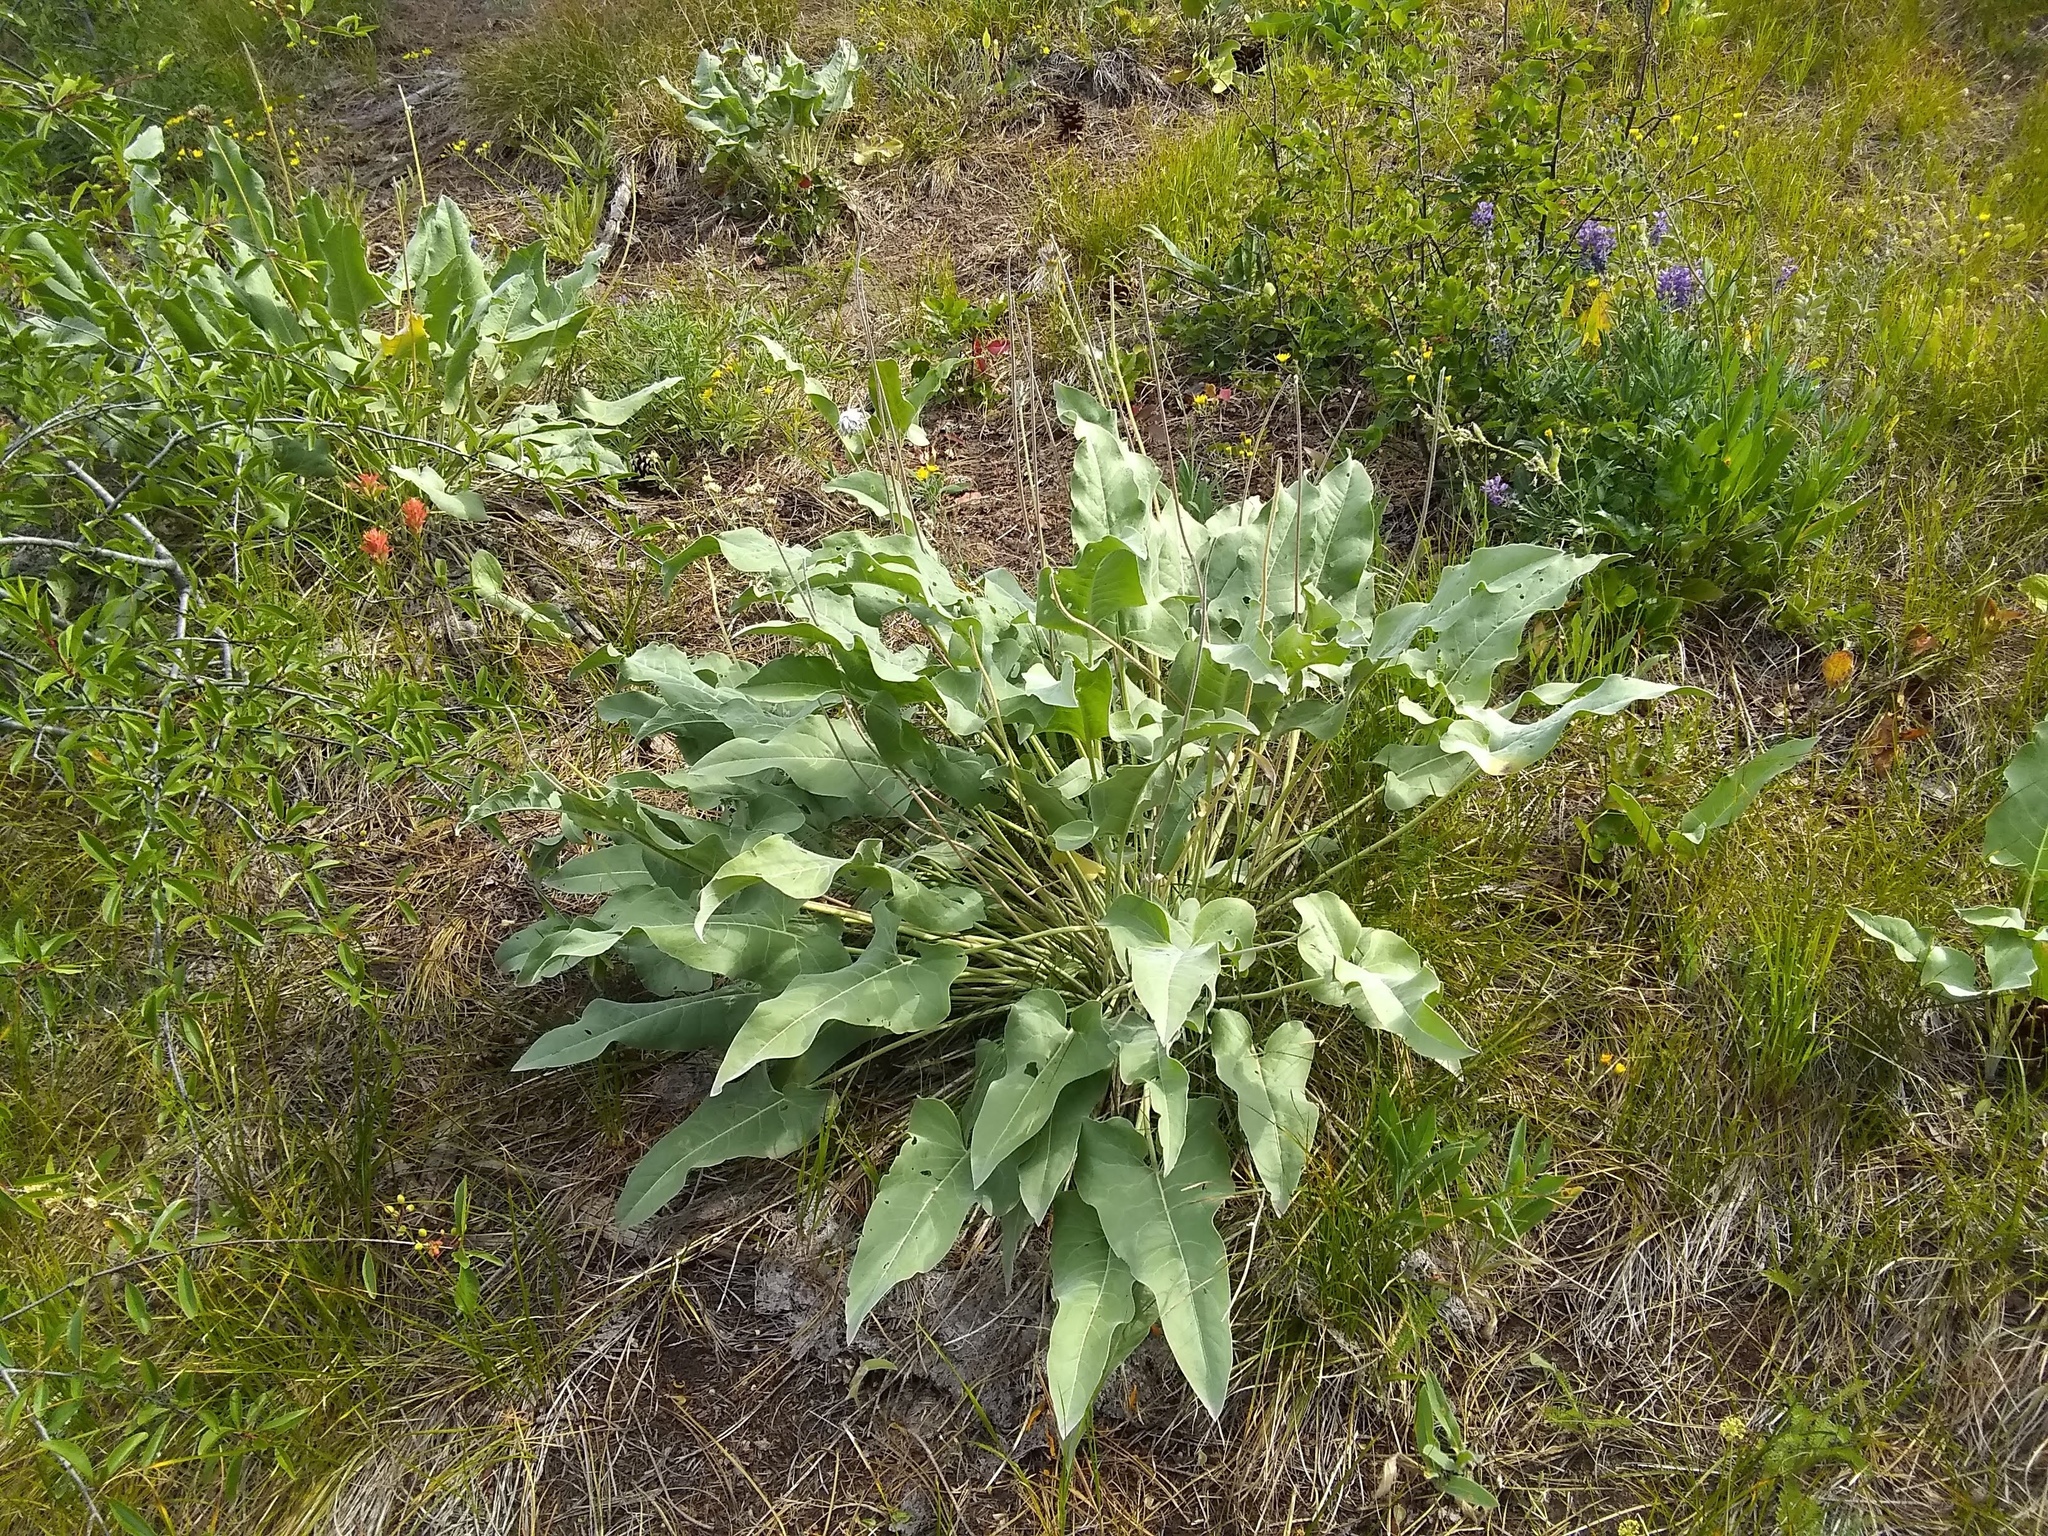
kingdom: Plantae
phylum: Tracheophyta
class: Magnoliopsida
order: Asterales
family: Asteraceae
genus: Wyethia
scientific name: Wyethia sagittata
